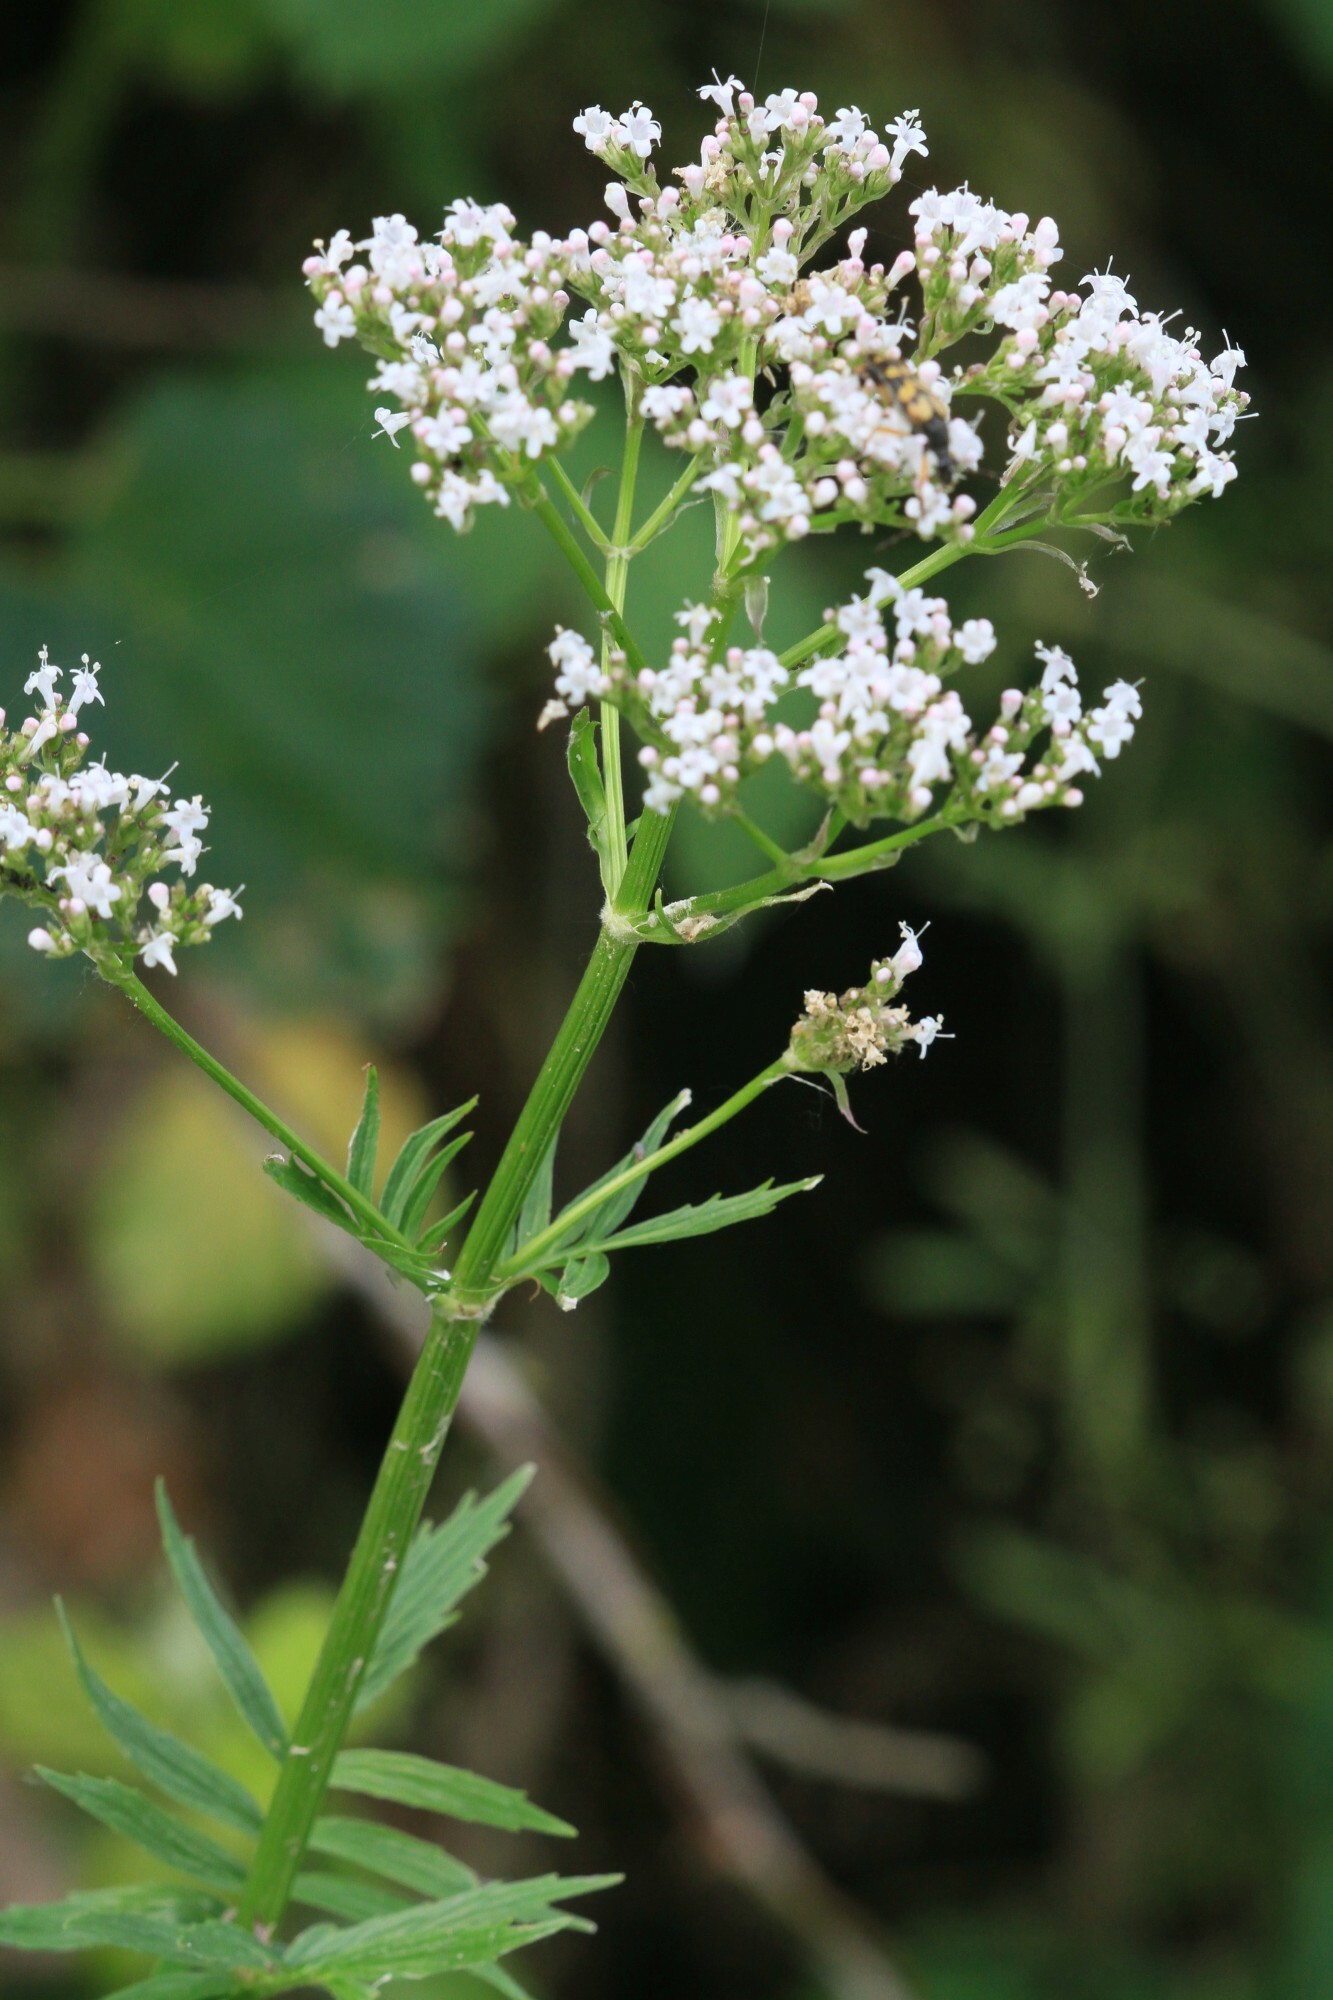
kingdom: Plantae
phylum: Tracheophyta
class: Magnoliopsida
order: Dipsacales
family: Caprifoliaceae
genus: Valeriana
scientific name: Valeriana officinalis
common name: Common valerian
